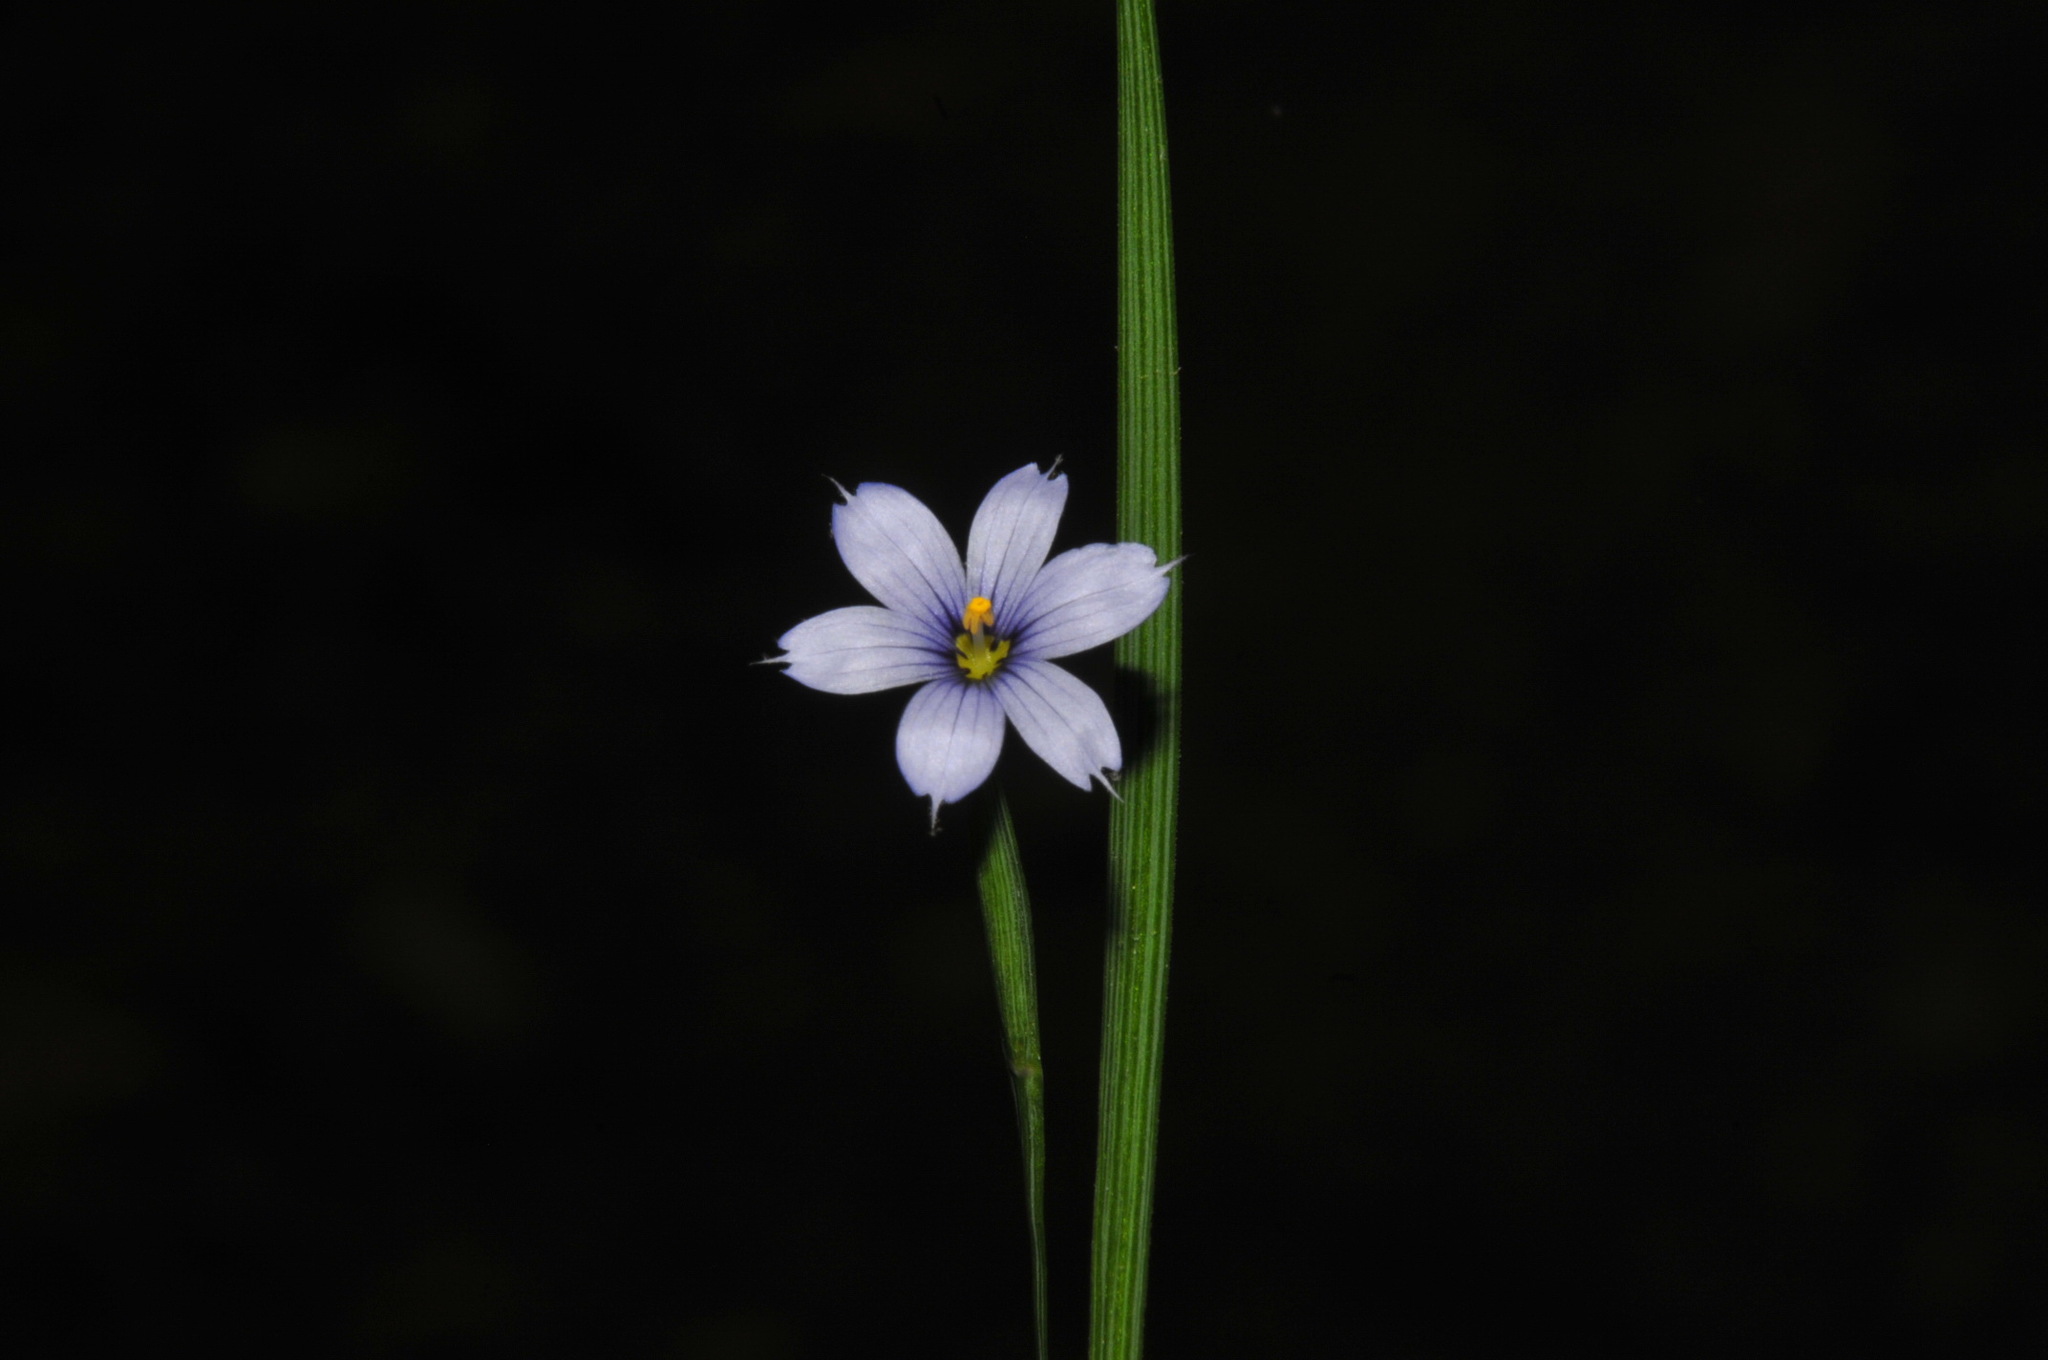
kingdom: Plantae
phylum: Tracheophyta
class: Liliopsida
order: Asparagales
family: Iridaceae
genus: Sisyrinchium
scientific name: Sisyrinchium angustifolium
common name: Narrow-leaf blue-eyed-grass
